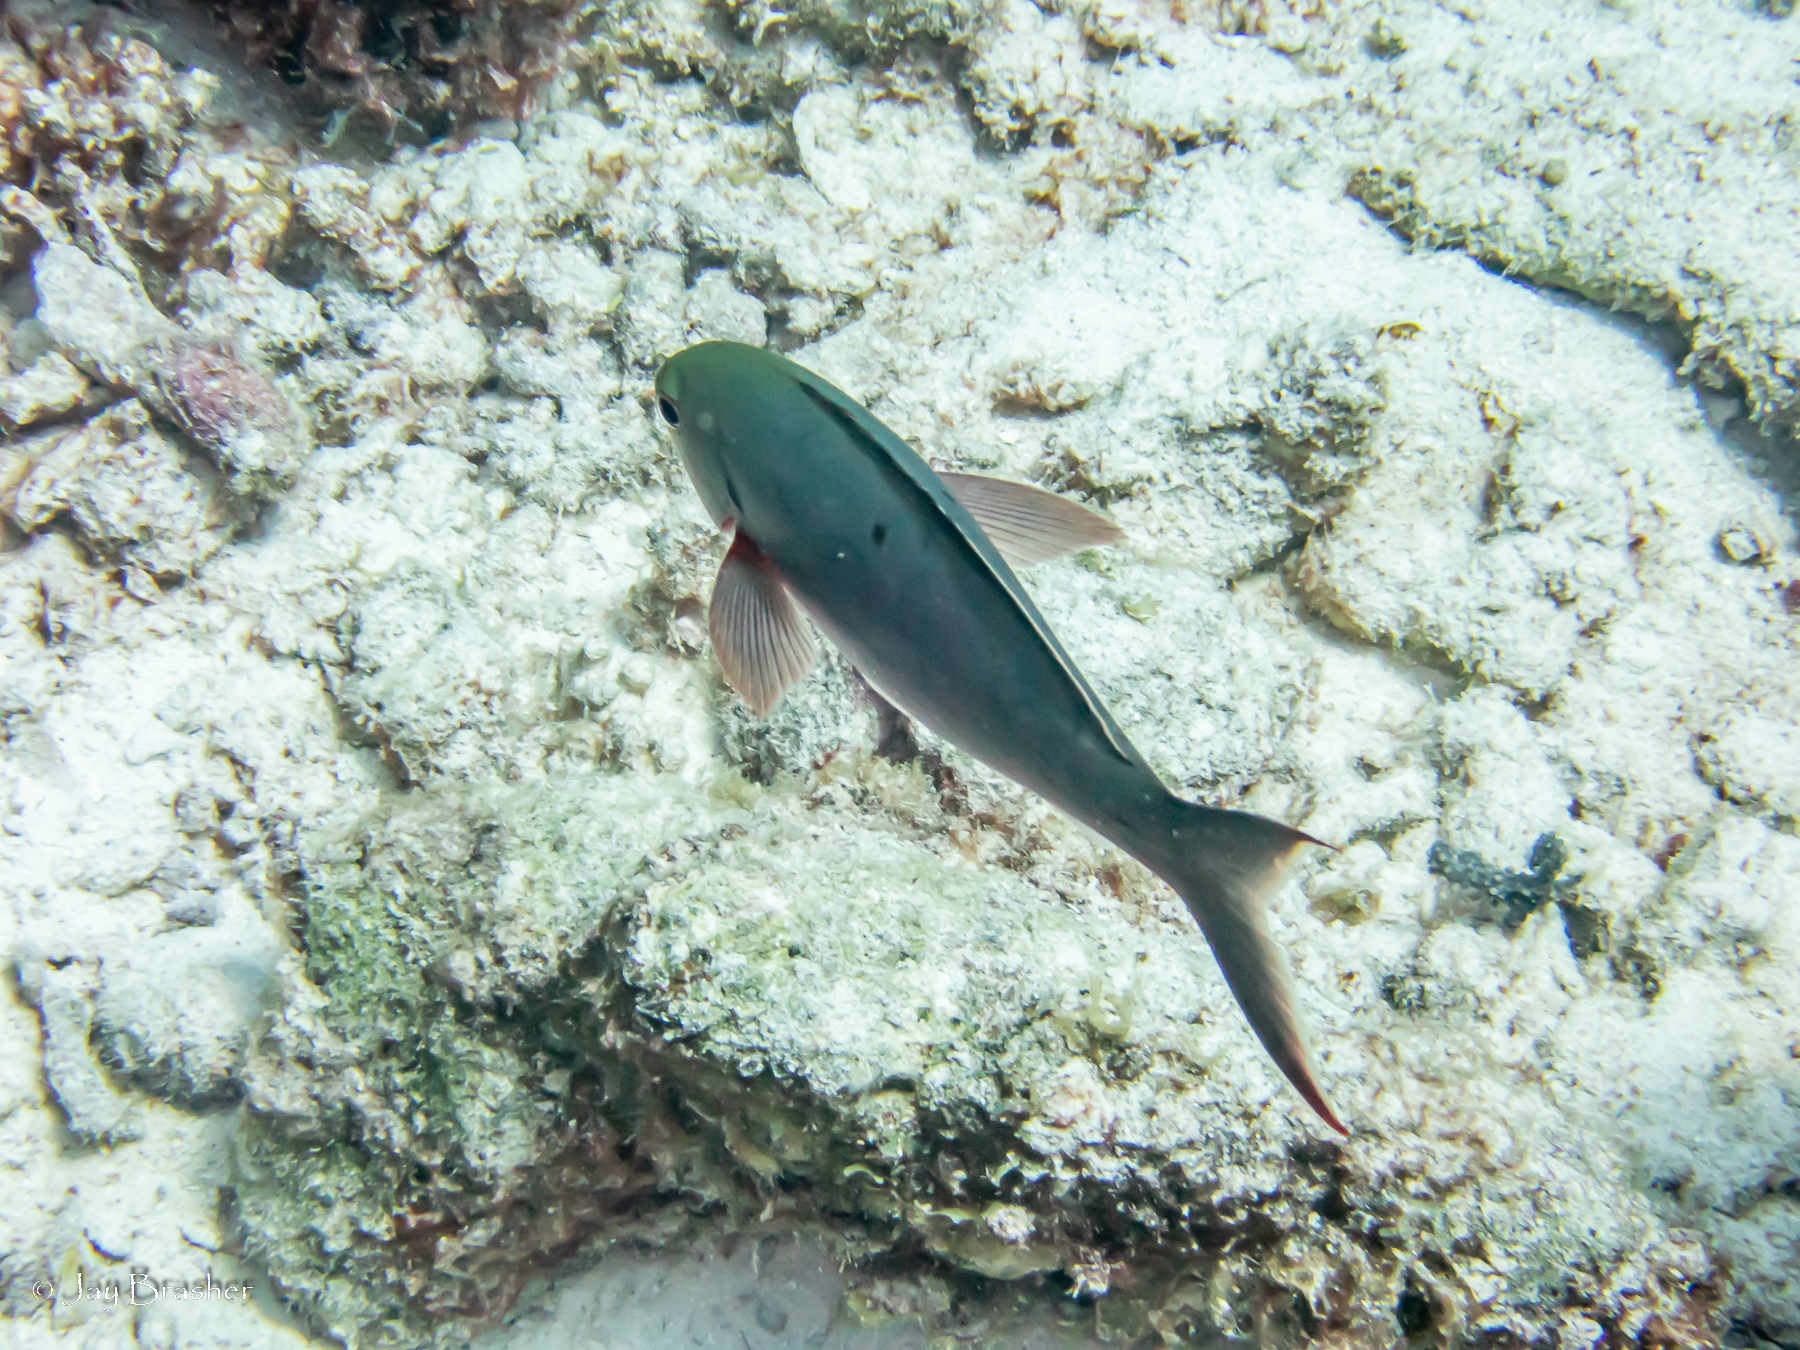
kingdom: Animalia
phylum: Chordata
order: Perciformes
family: Serranidae
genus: Paranthias
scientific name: Paranthias furcifer
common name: Creole-fish
